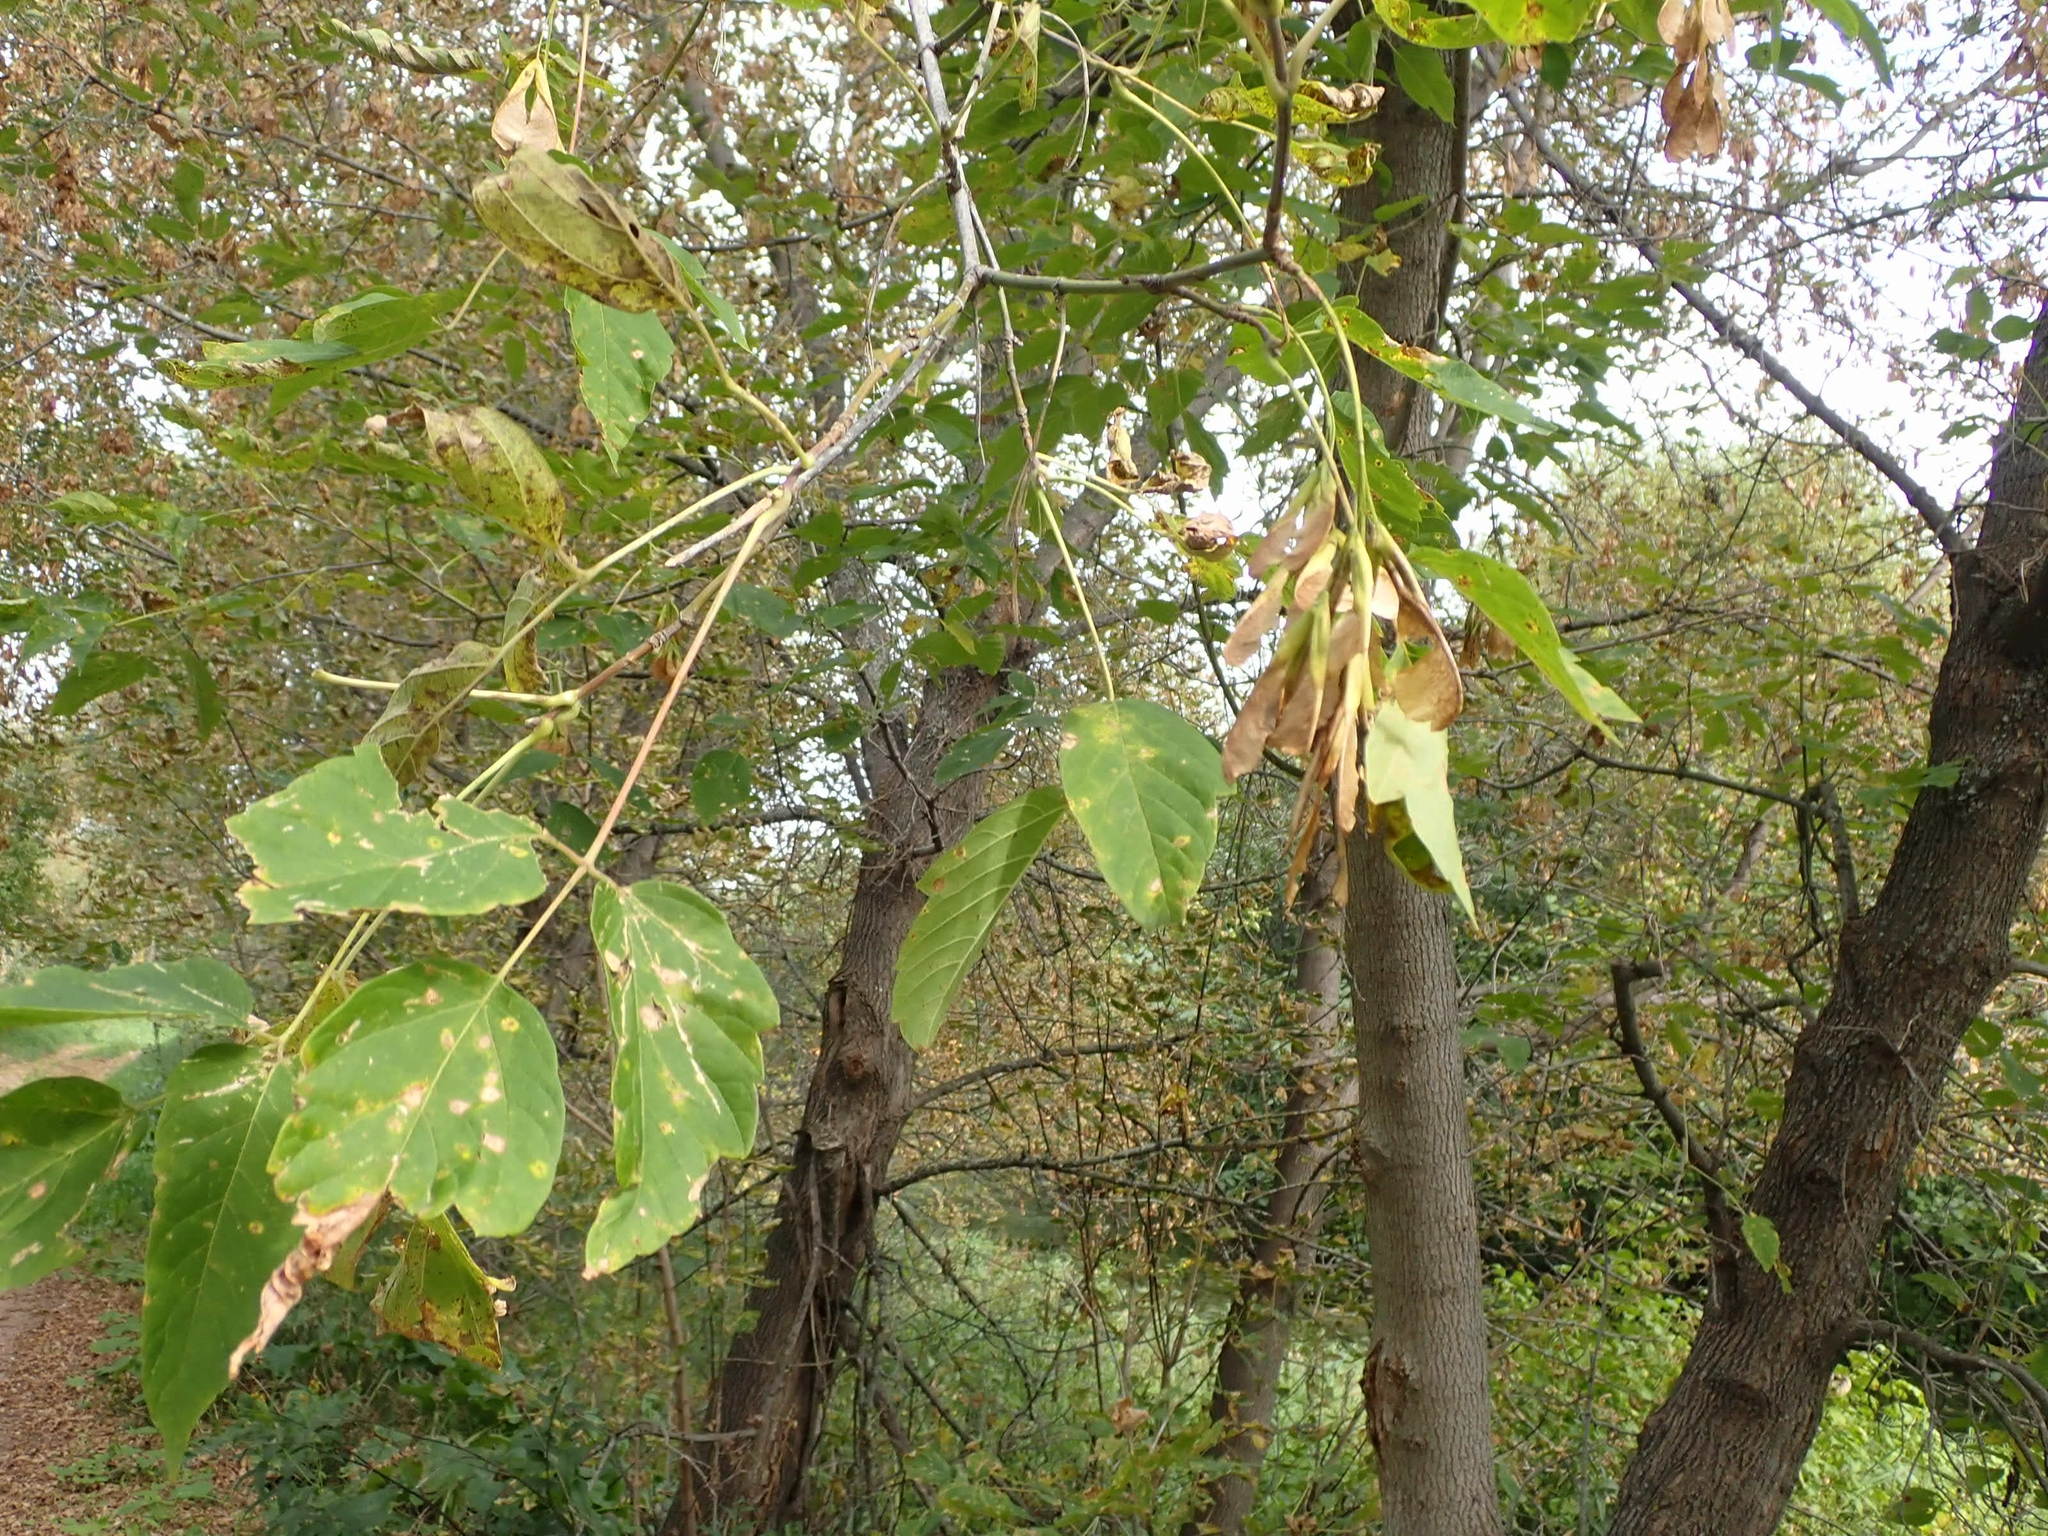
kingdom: Plantae
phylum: Tracheophyta
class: Magnoliopsida
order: Sapindales
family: Sapindaceae
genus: Acer
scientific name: Acer negundo
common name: Ashleaf maple
